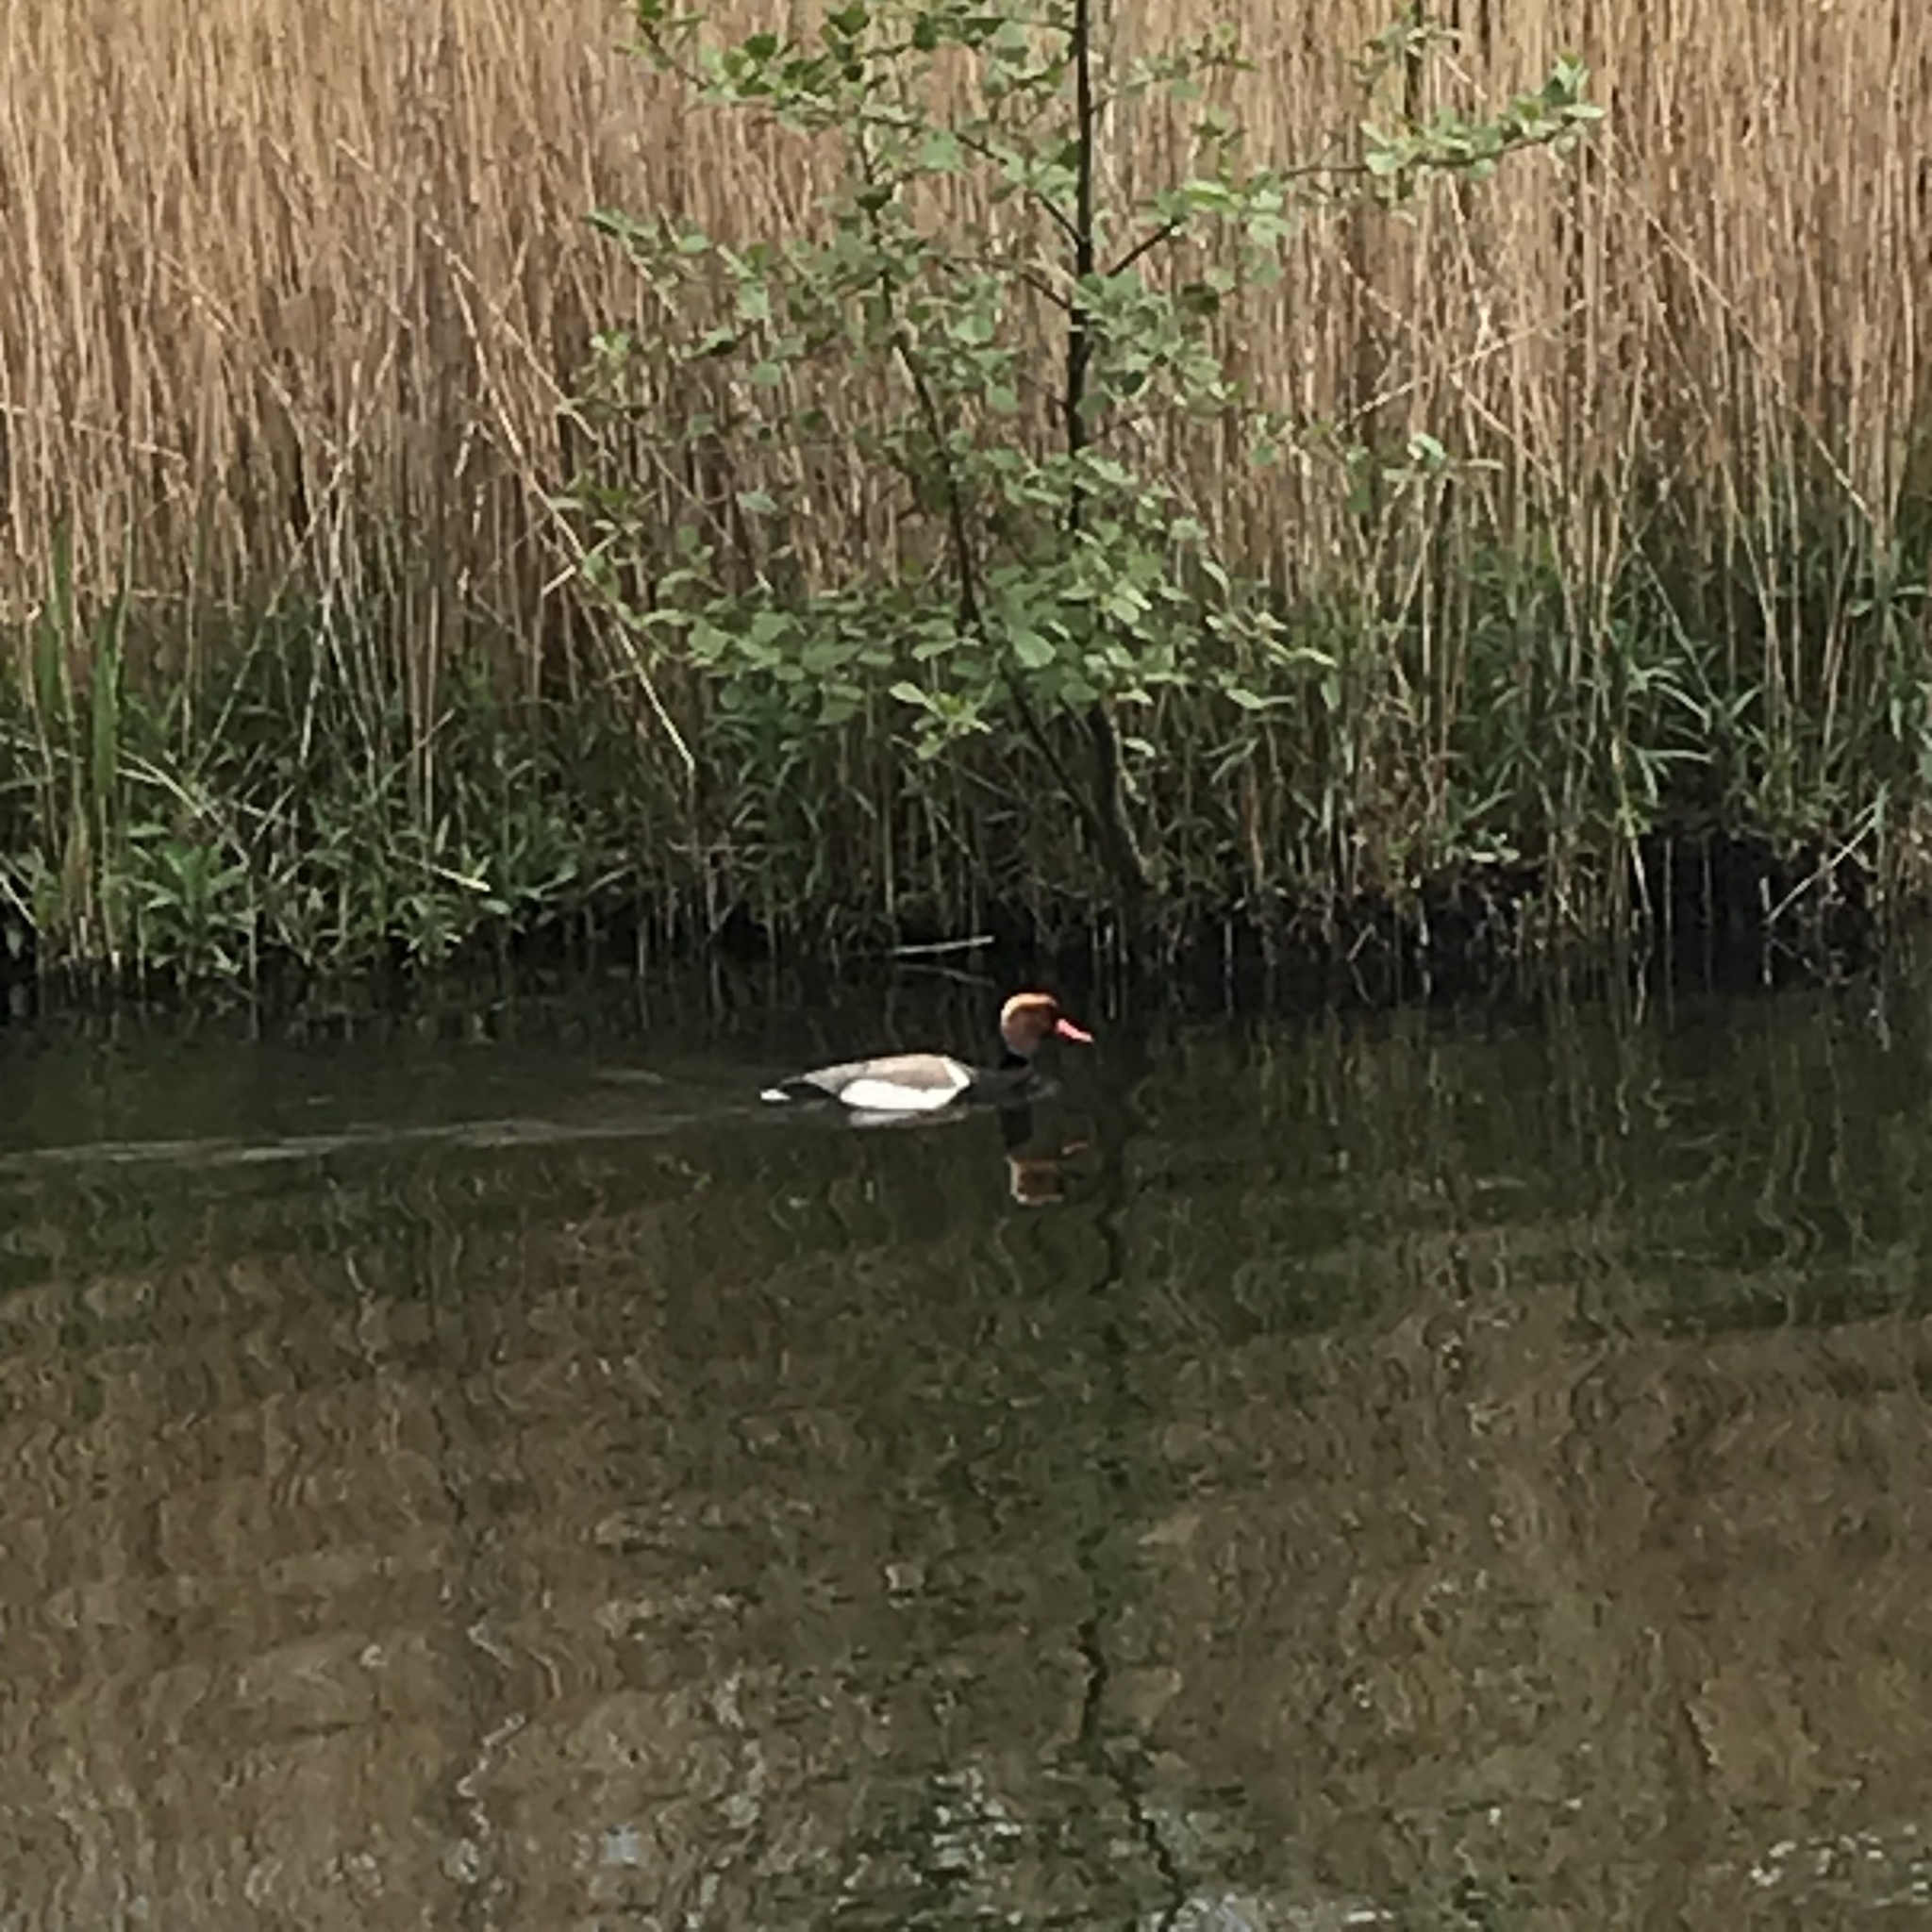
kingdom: Animalia
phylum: Chordata
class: Aves
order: Anseriformes
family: Anatidae
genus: Netta
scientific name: Netta rufina
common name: Red-crested pochard
